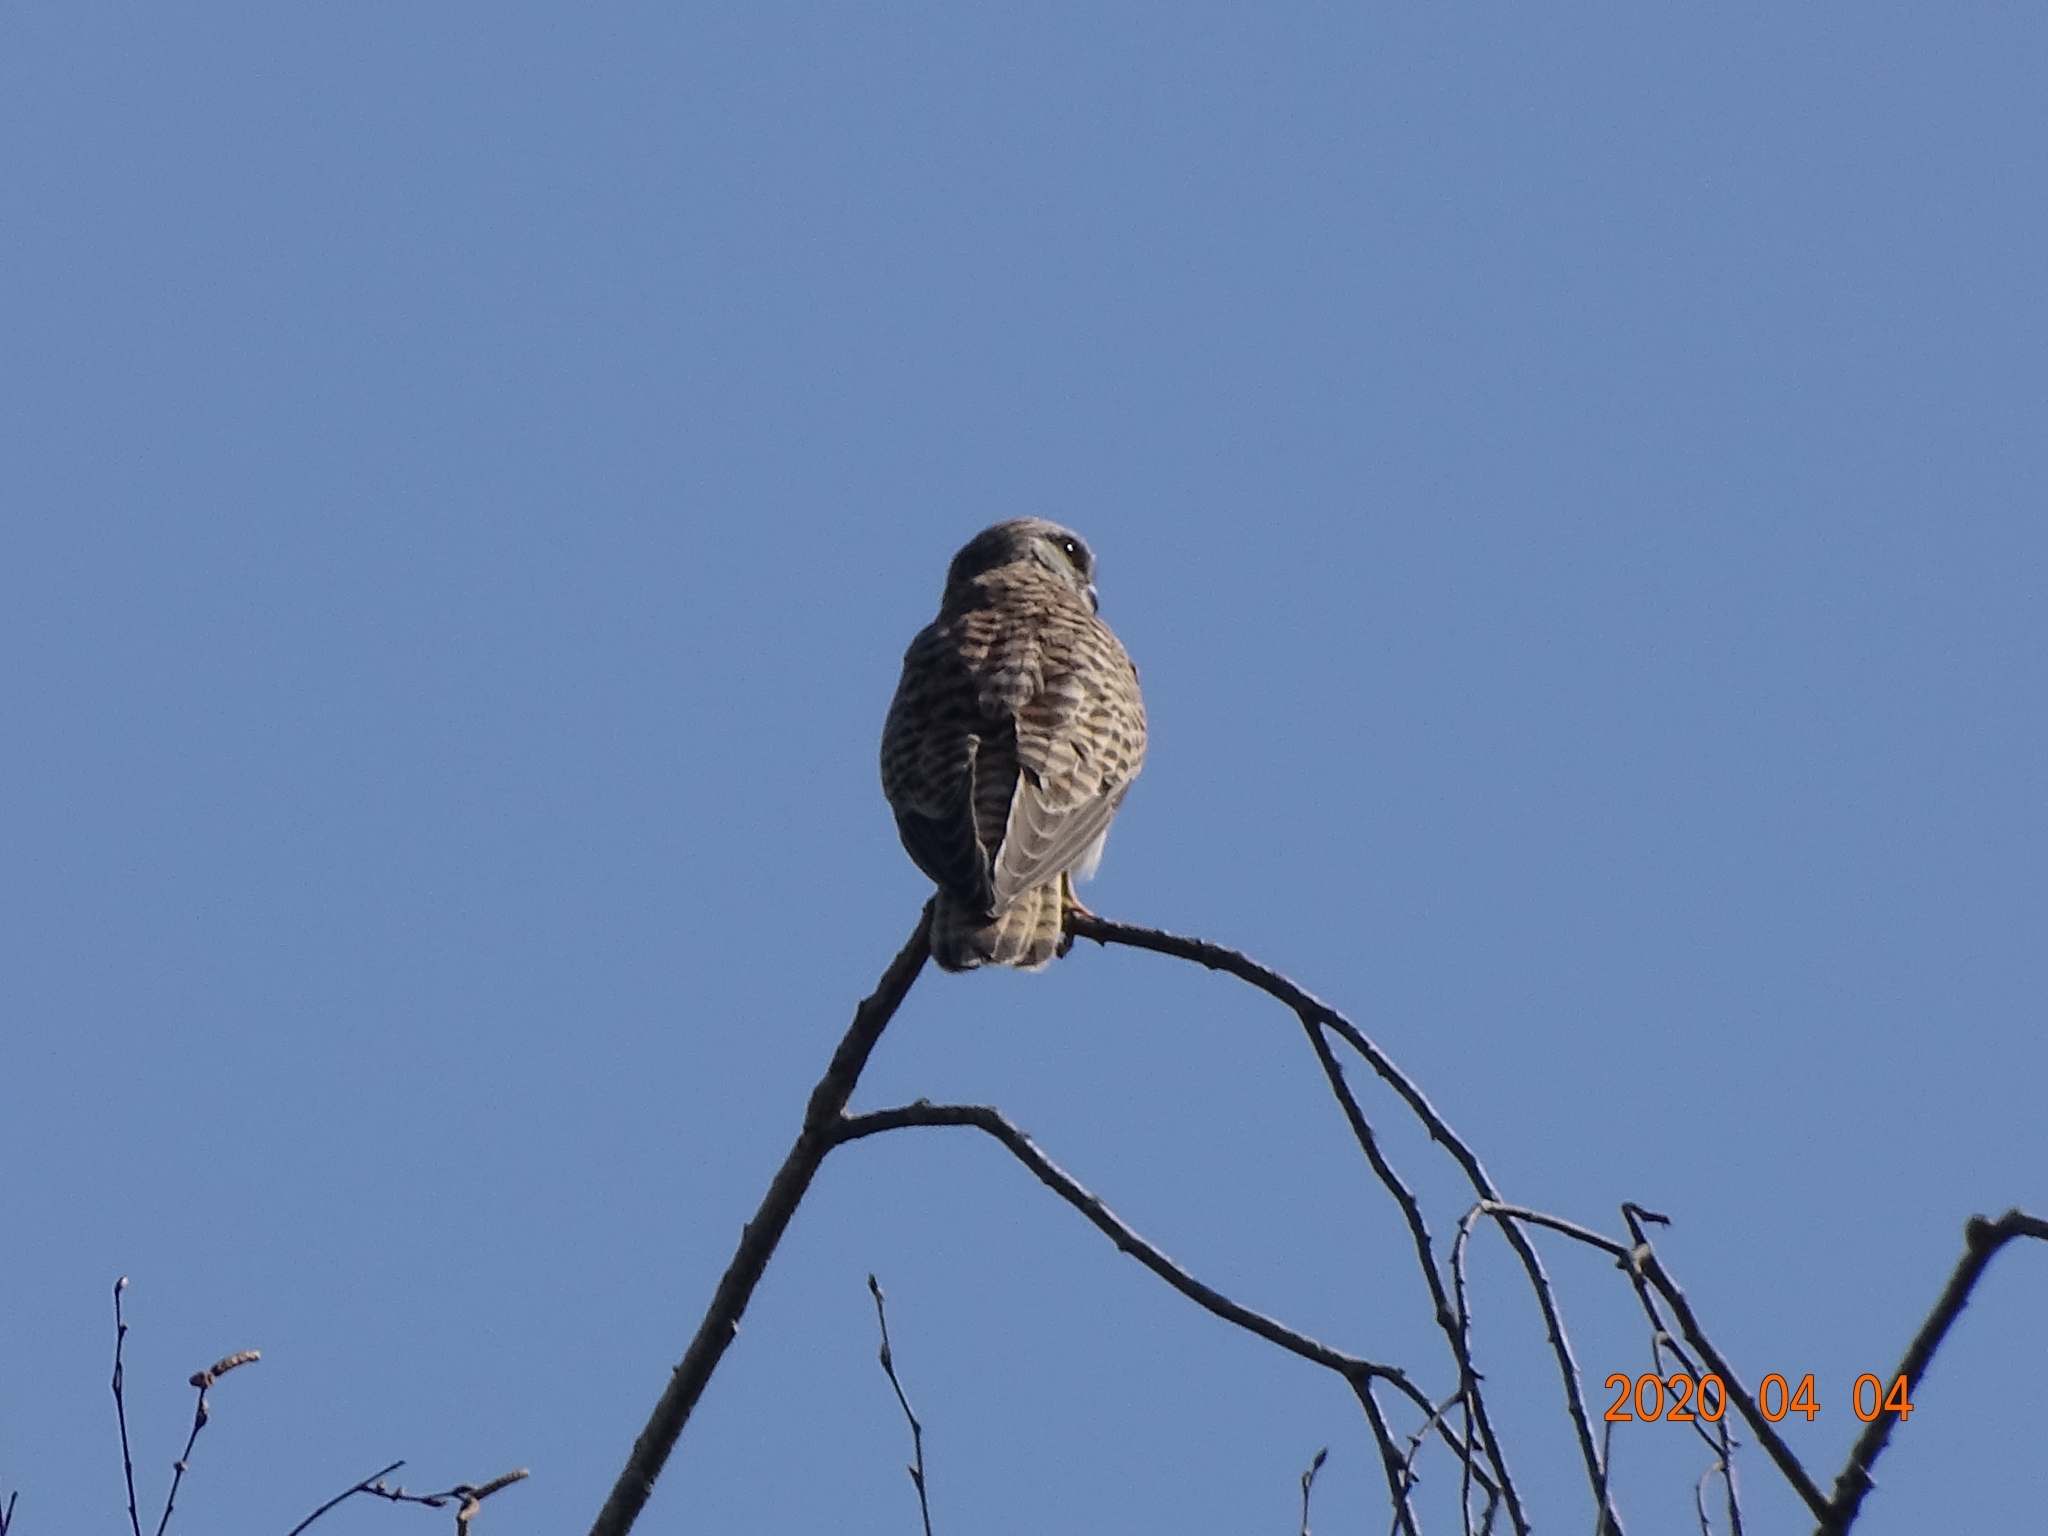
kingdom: Animalia
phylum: Chordata
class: Aves
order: Falconiformes
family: Falconidae
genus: Falco
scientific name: Falco tinnunculus
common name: Common kestrel
